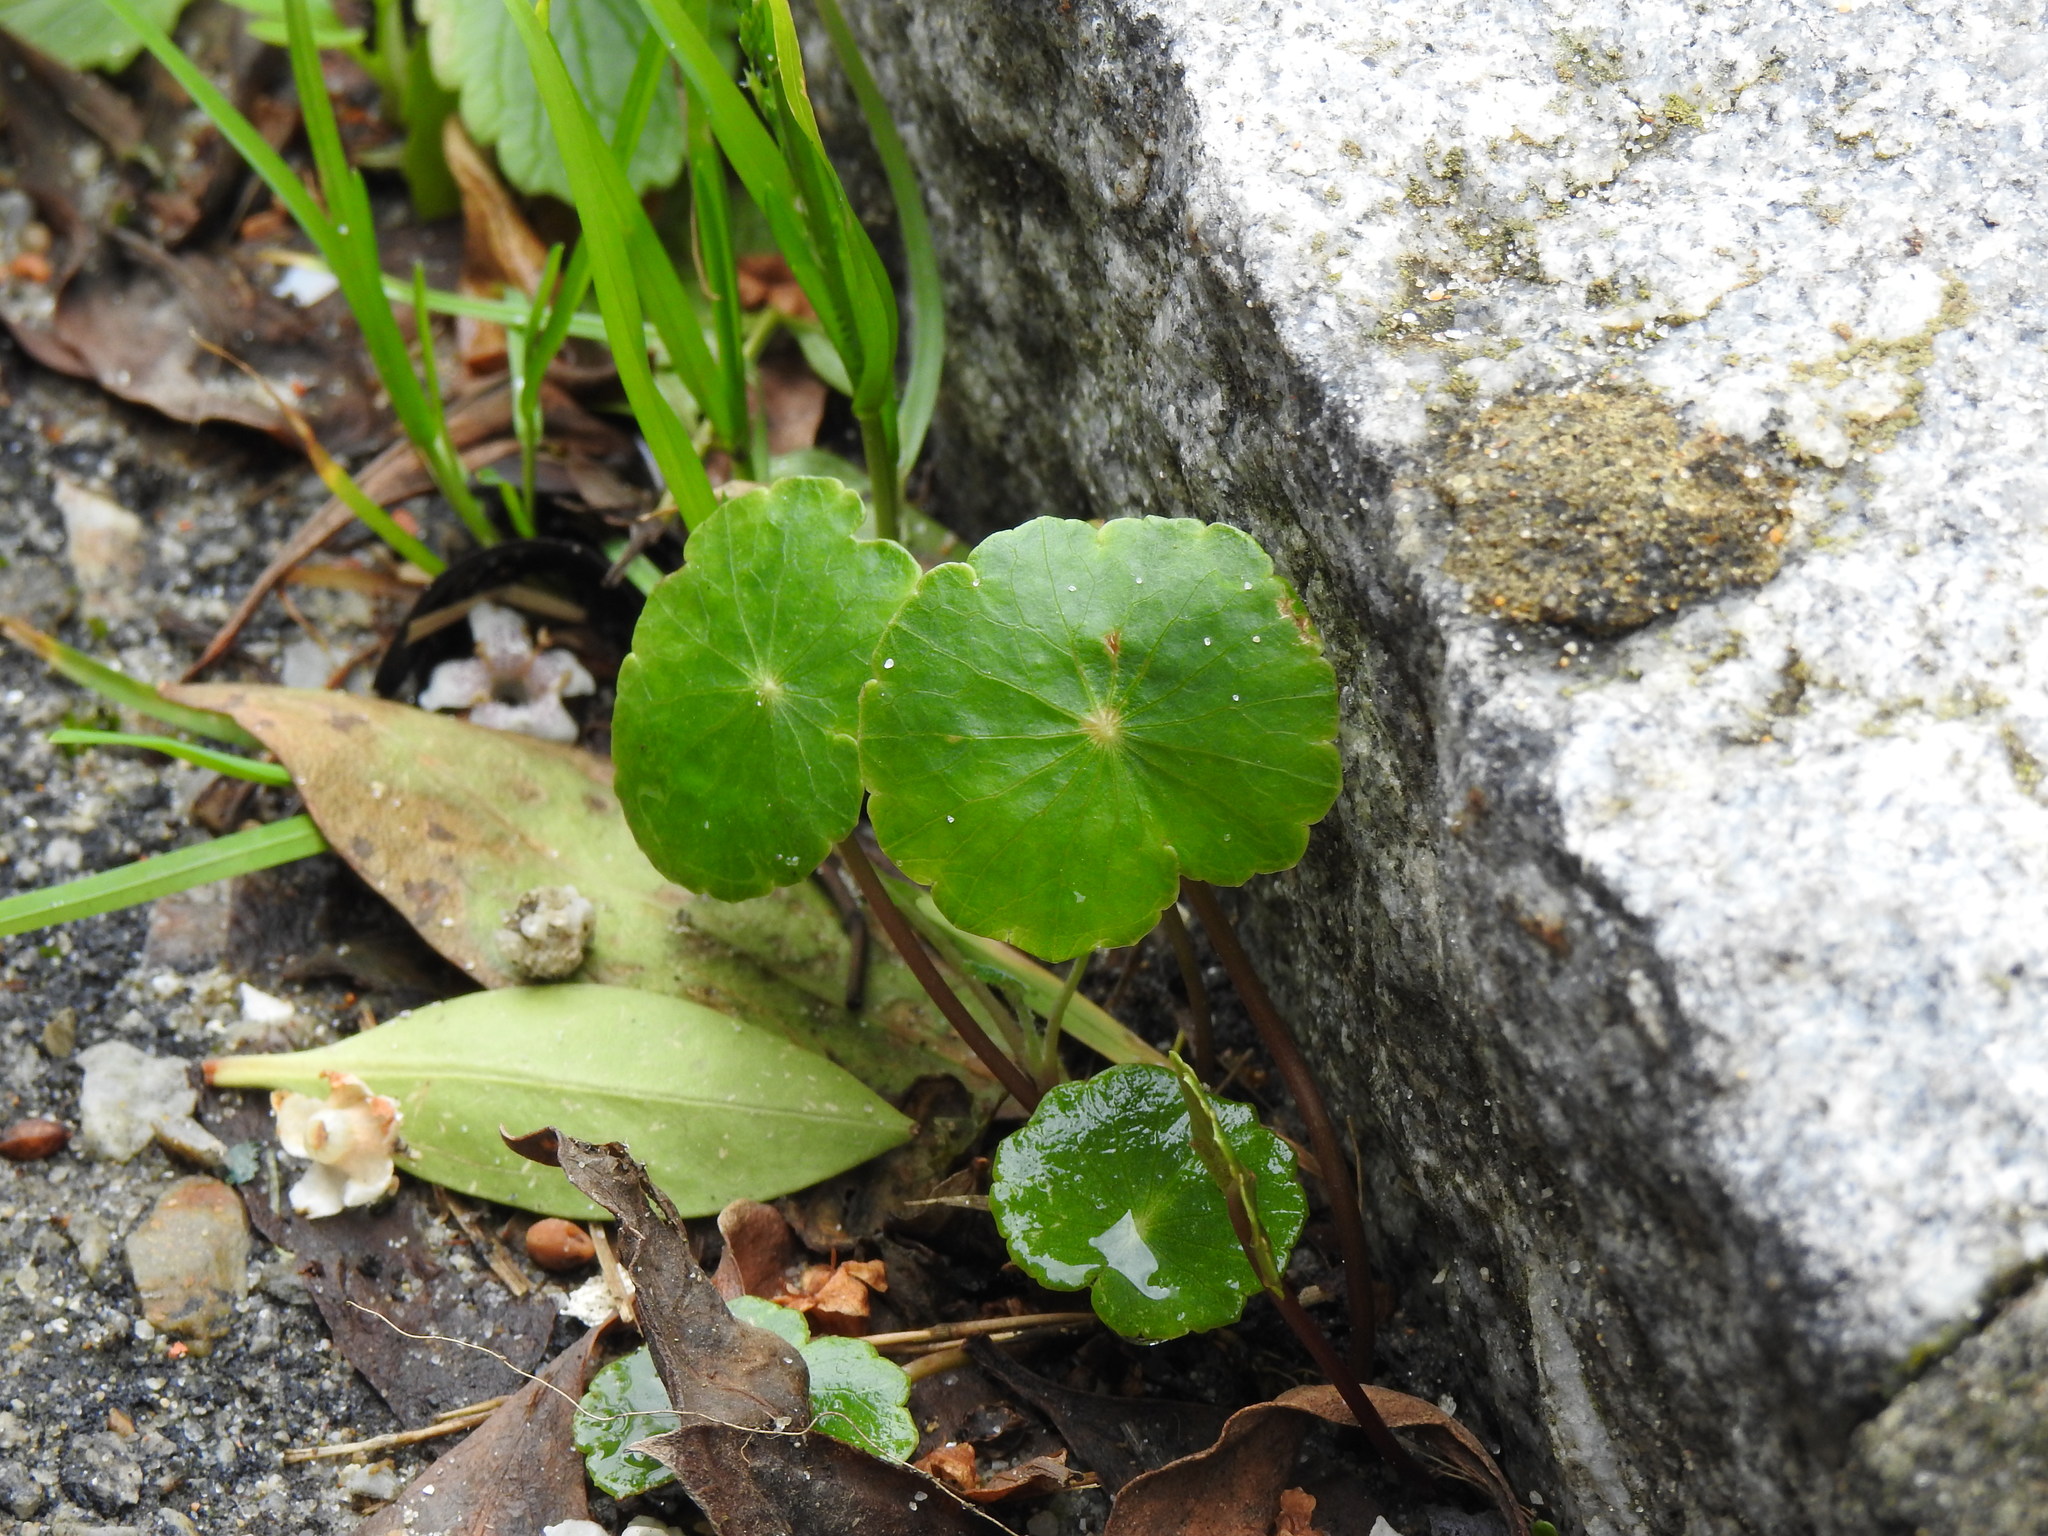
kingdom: Plantae
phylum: Tracheophyta
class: Magnoliopsida
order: Apiales
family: Araliaceae
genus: Hydrocotyle
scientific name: Hydrocotyle bonariensis
